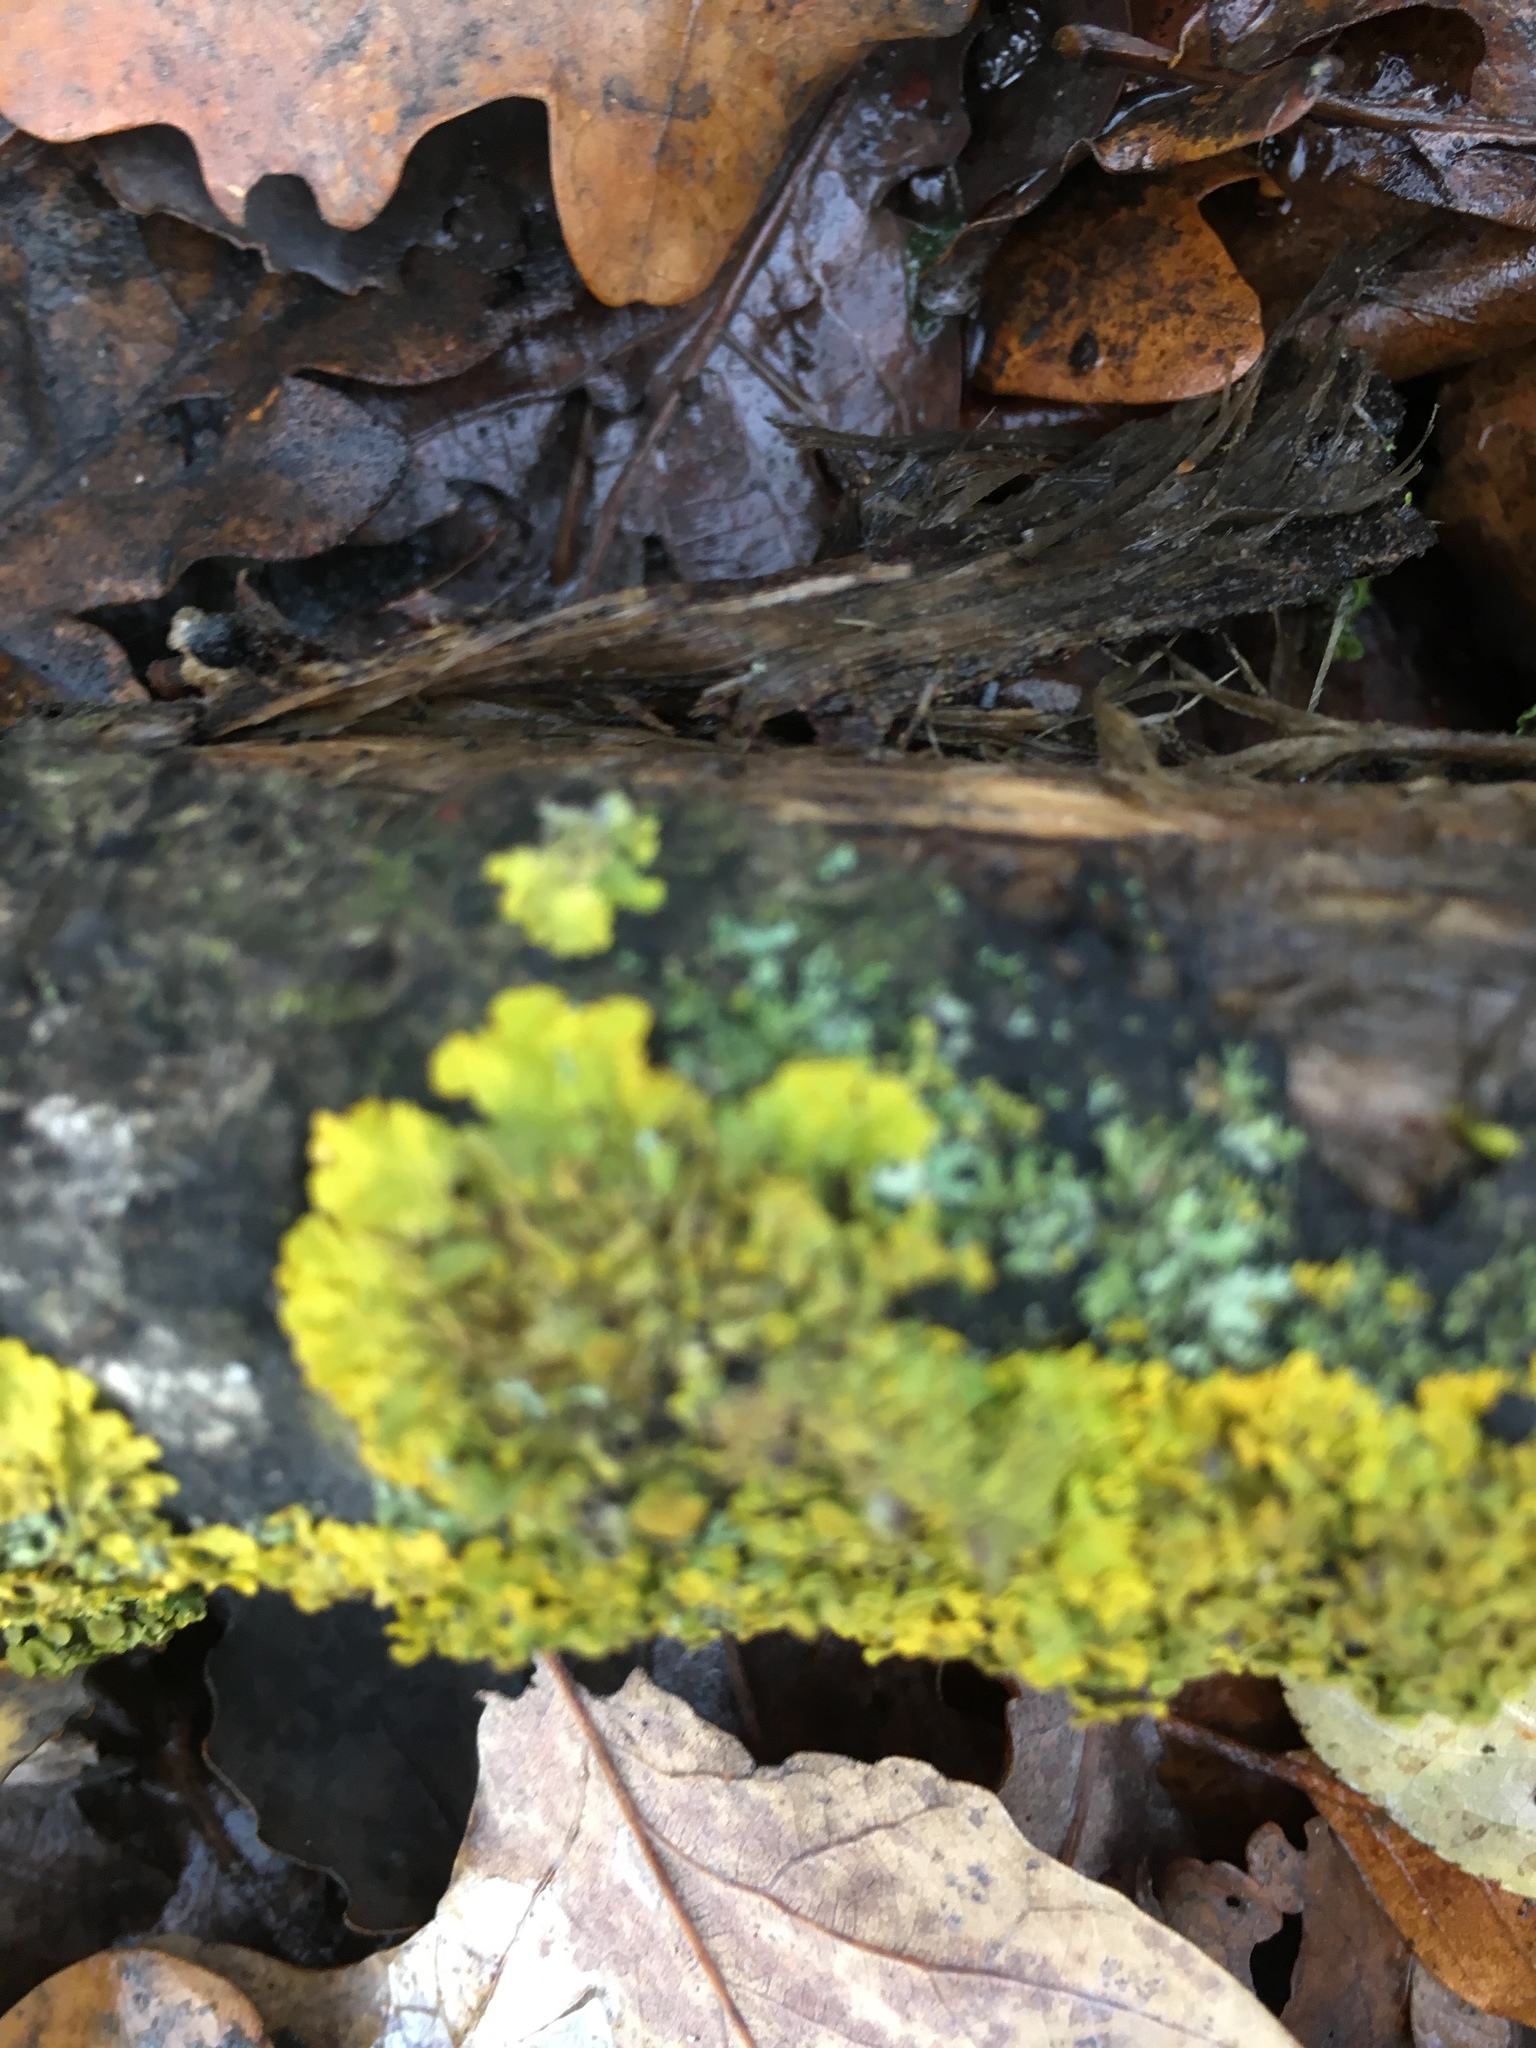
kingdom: Fungi
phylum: Ascomycota
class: Lecanoromycetes
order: Teloschistales
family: Teloschistaceae
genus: Xanthoria
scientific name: Xanthoria parietina
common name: Common orange lichen
